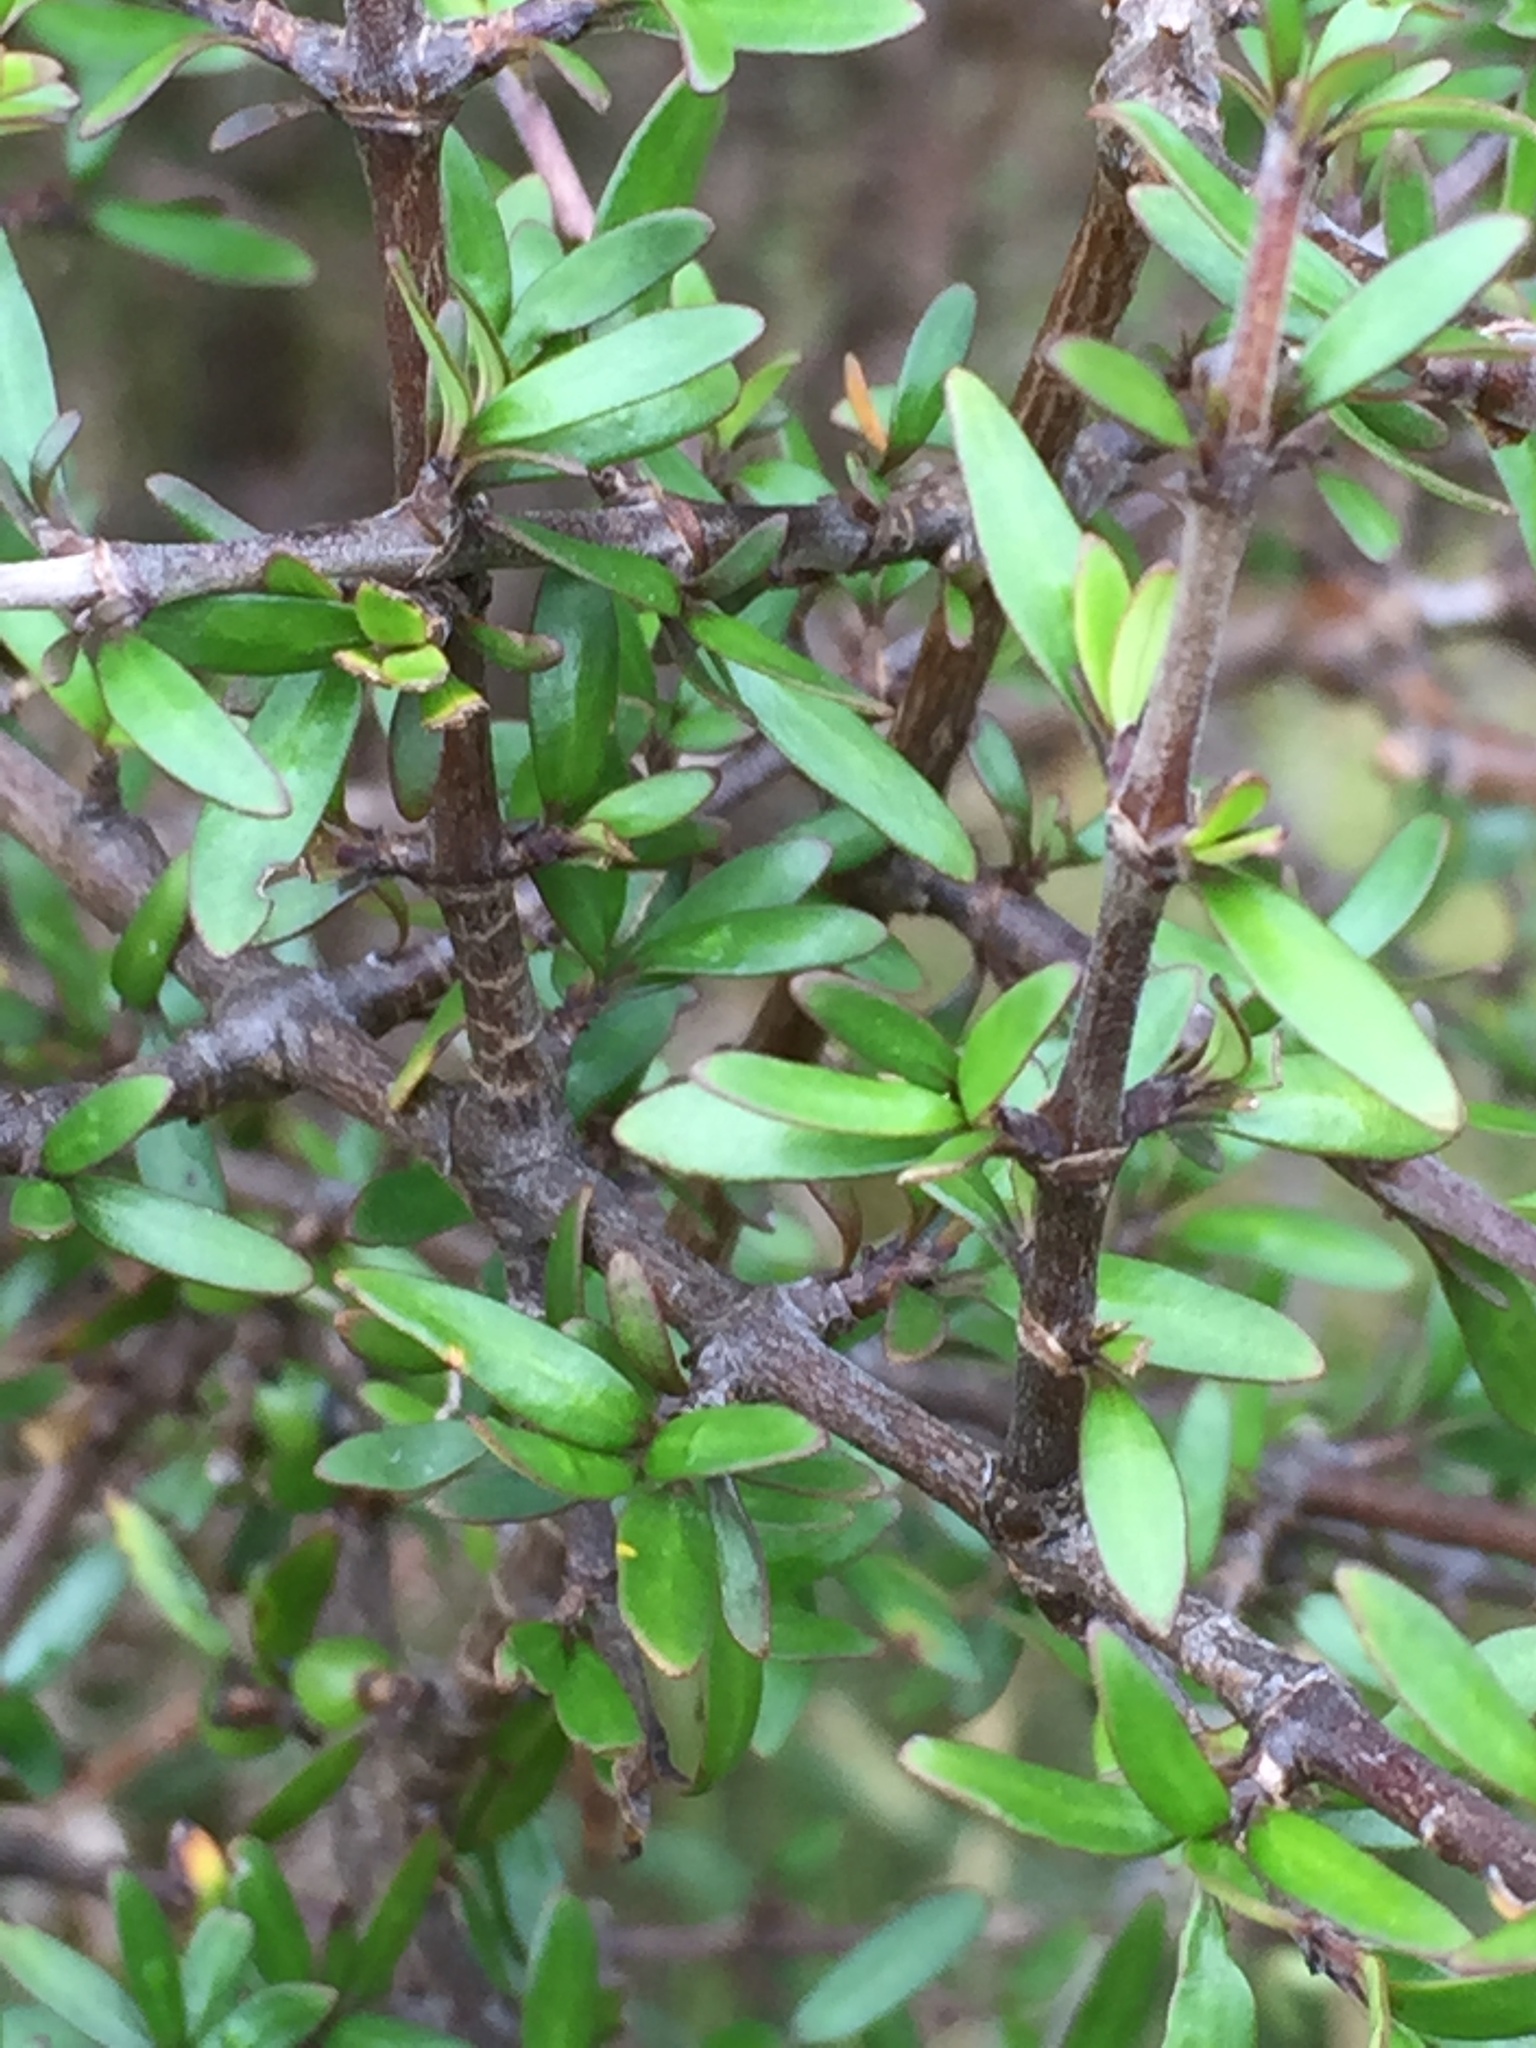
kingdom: Plantae
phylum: Tracheophyta
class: Magnoliopsida
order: Gentianales
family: Rubiaceae
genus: Coprosma
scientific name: Coprosma propinqua
